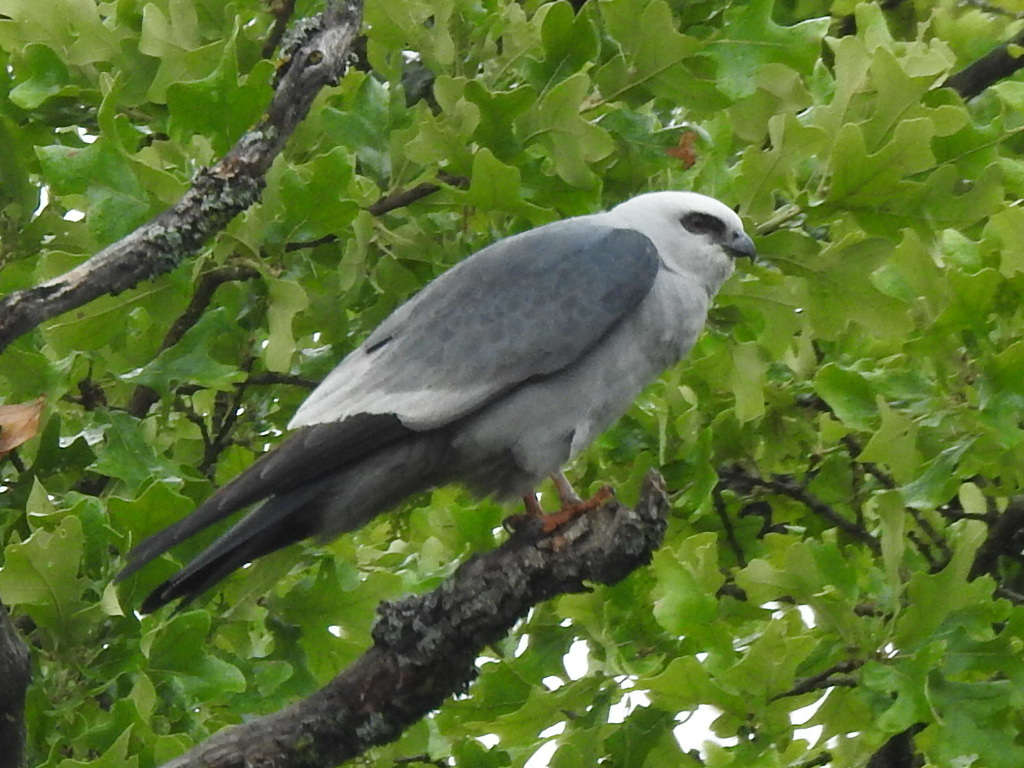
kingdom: Animalia
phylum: Chordata
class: Aves
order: Accipitriformes
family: Accipitridae
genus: Ictinia
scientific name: Ictinia mississippiensis
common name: Mississippi kite
